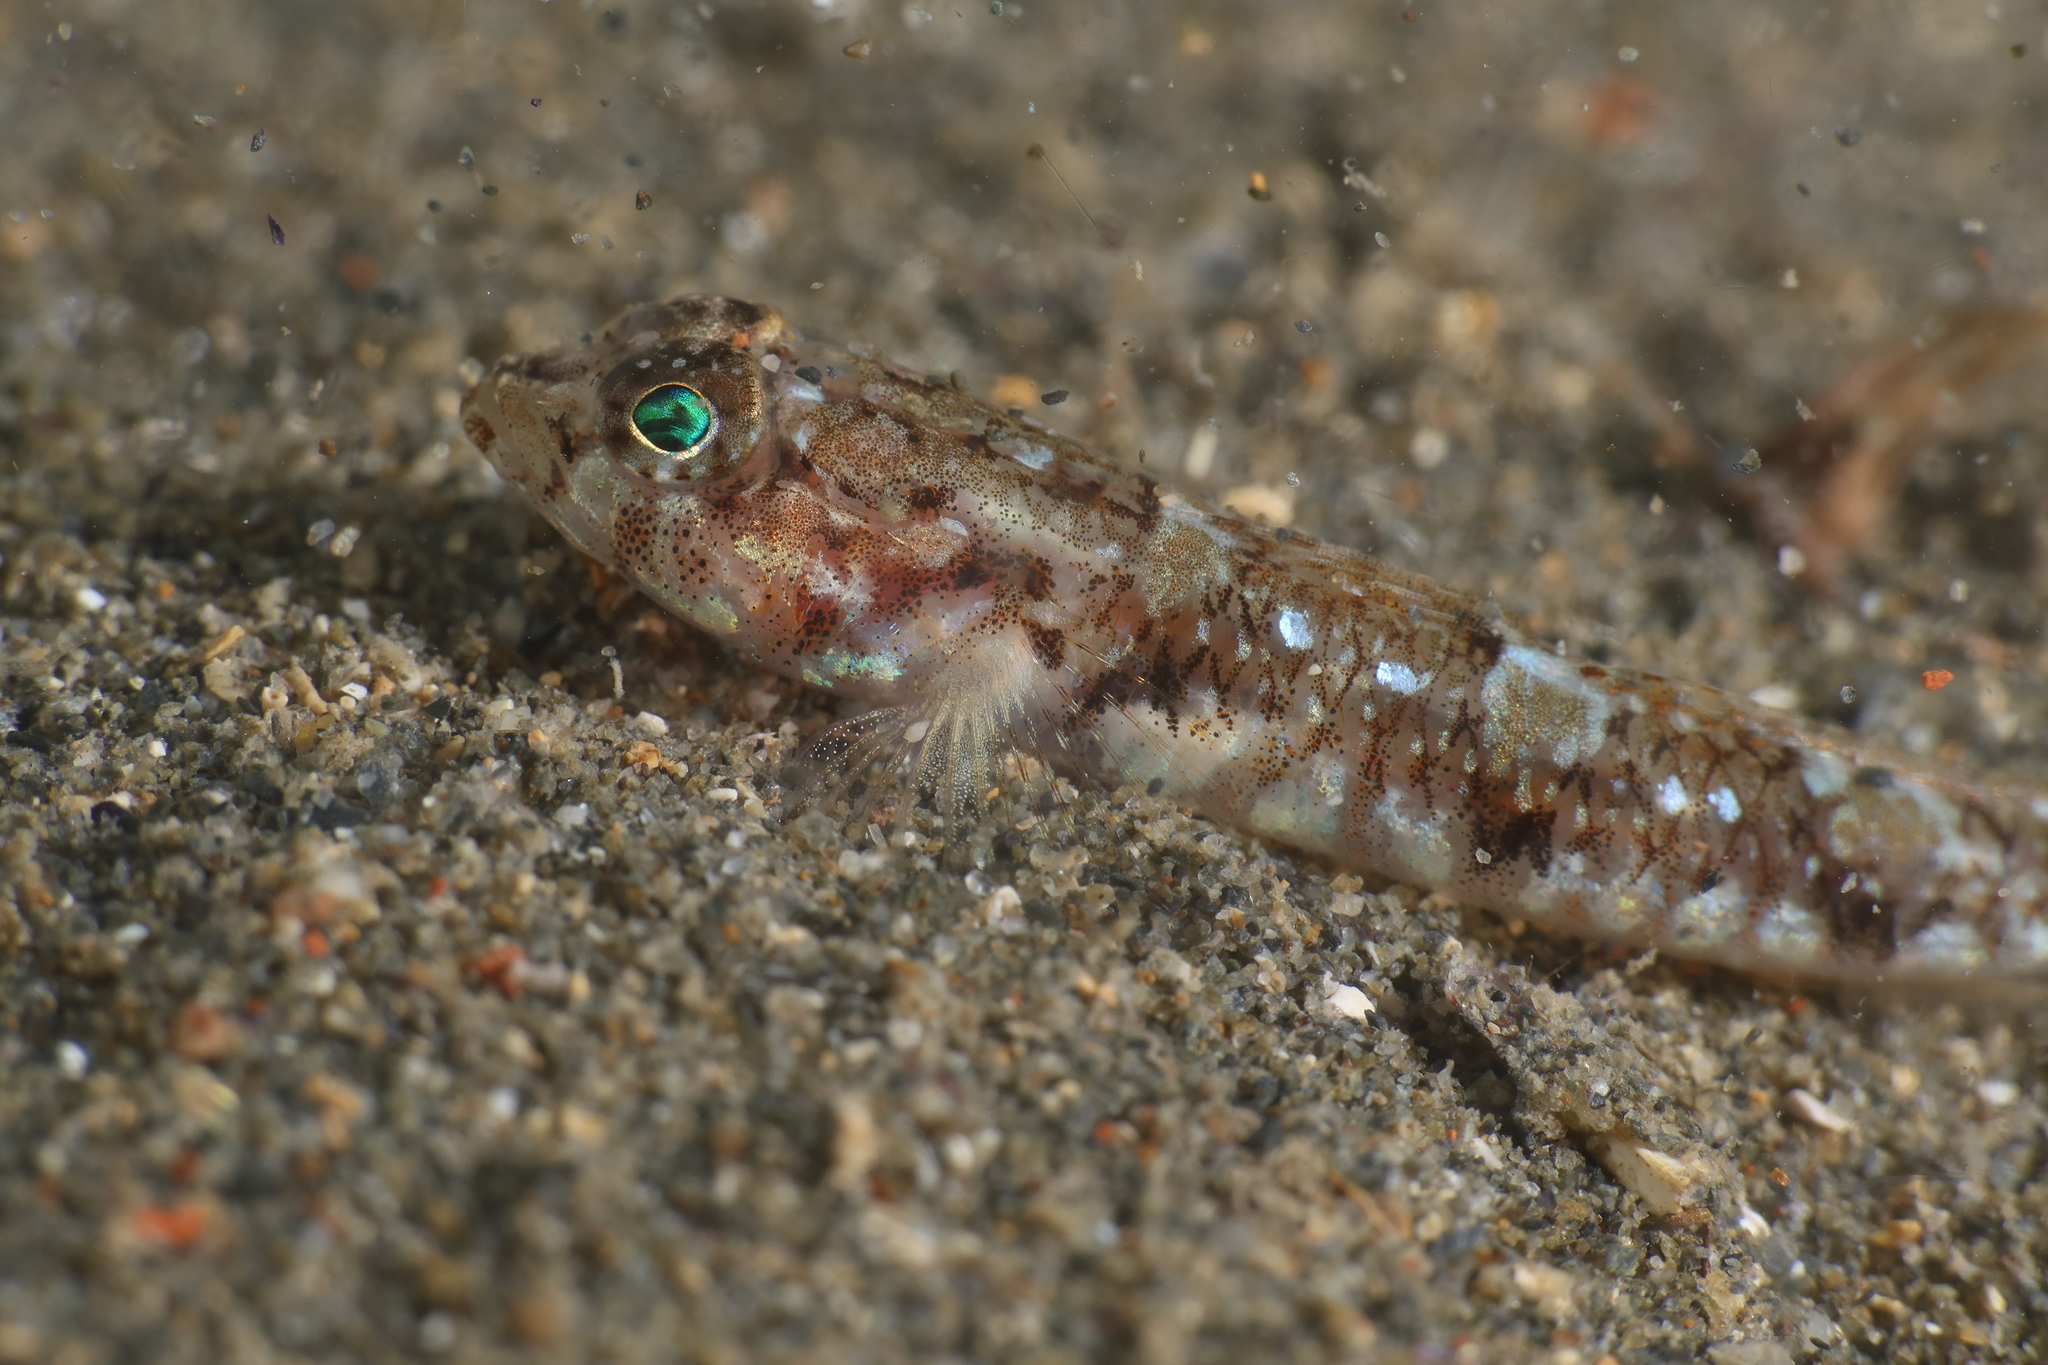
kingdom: Animalia
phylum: Chordata
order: Perciformes
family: Gobiidae
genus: Buenia
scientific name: Buenia affinis
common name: De buen's goby
